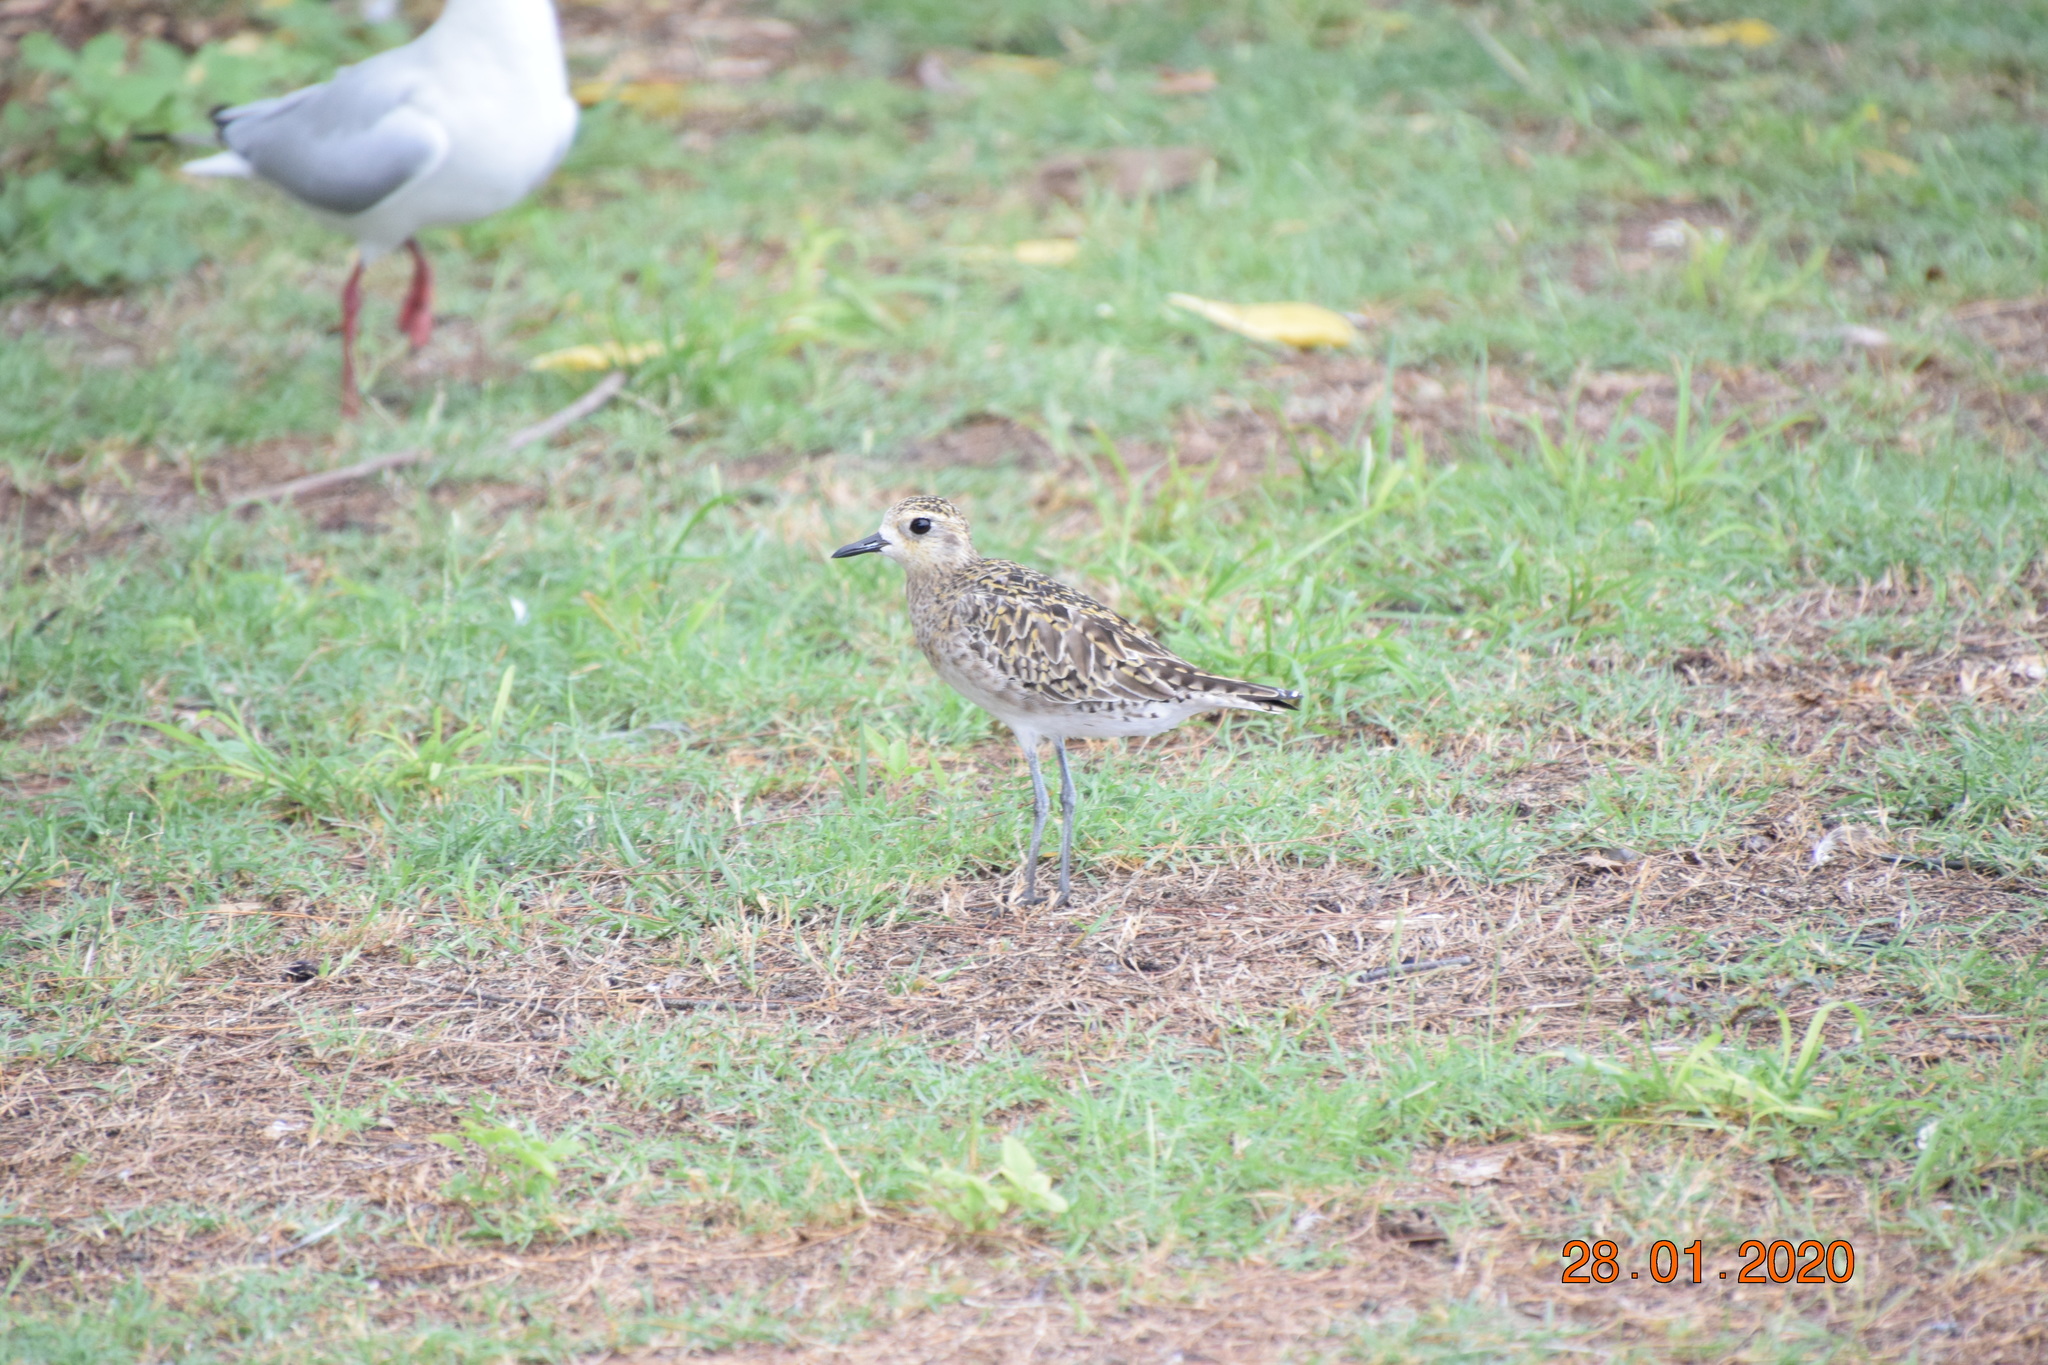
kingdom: Animalia
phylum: Chordata
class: Aves
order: Charadriiformes
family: Charadriidae
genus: Pluvialis
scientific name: Pluvialis fulva
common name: Pacific golden plover
